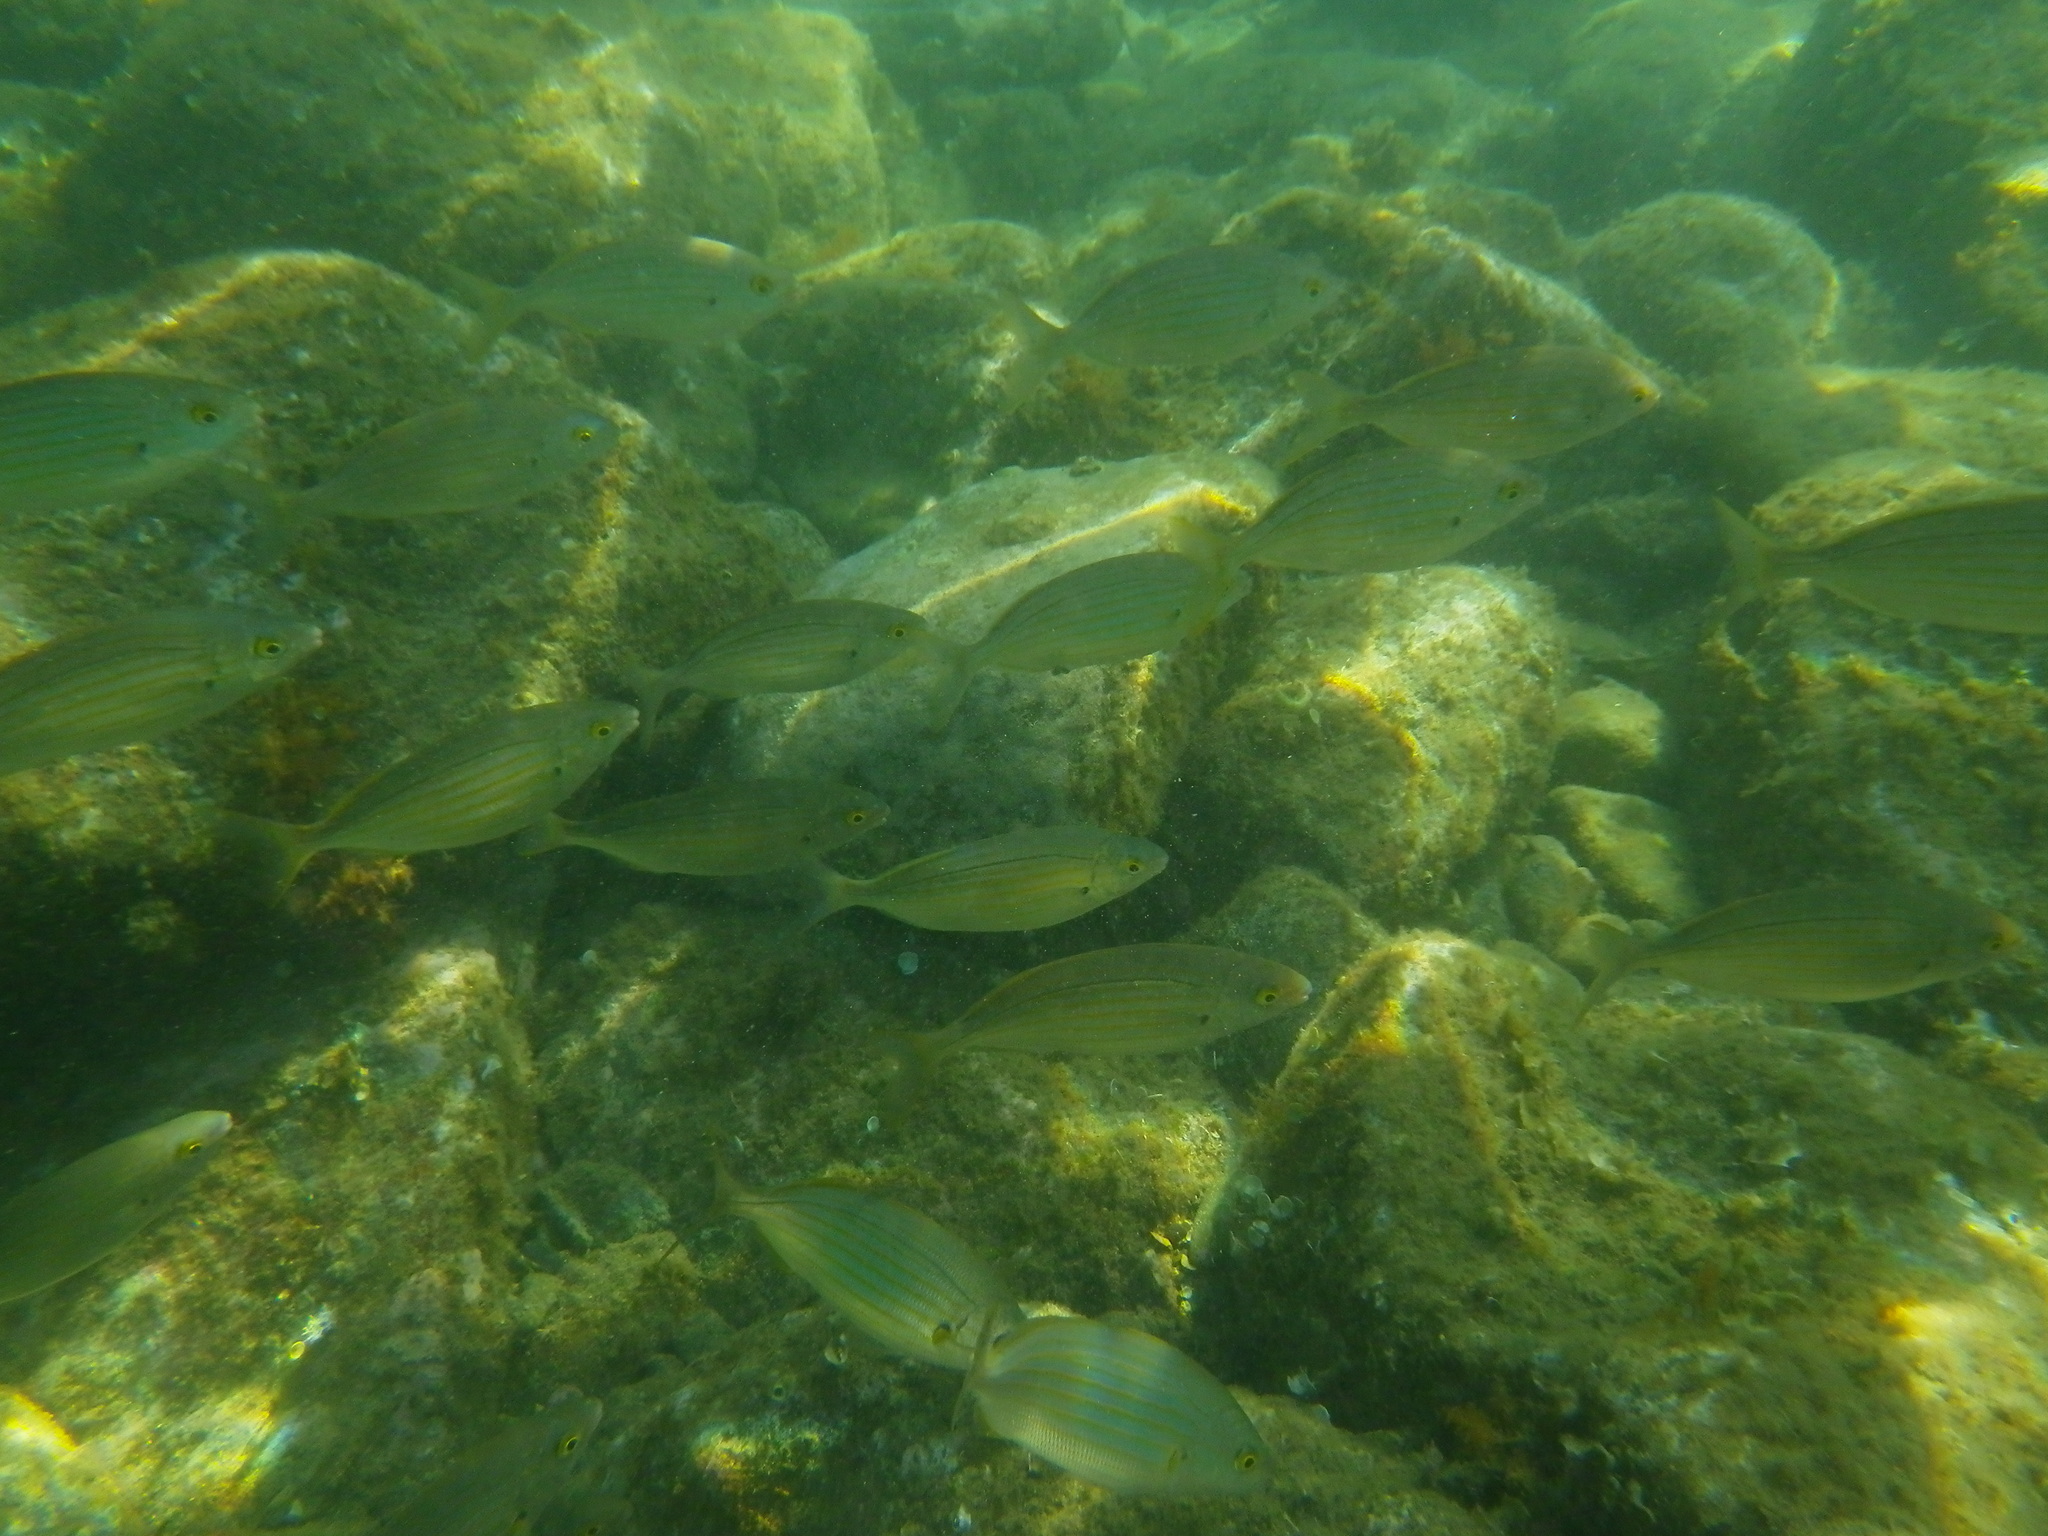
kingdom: Animalia
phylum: Chordata
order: Perciformes
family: Sparidae
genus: Sarpa
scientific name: Sarpa salpa
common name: Salema
